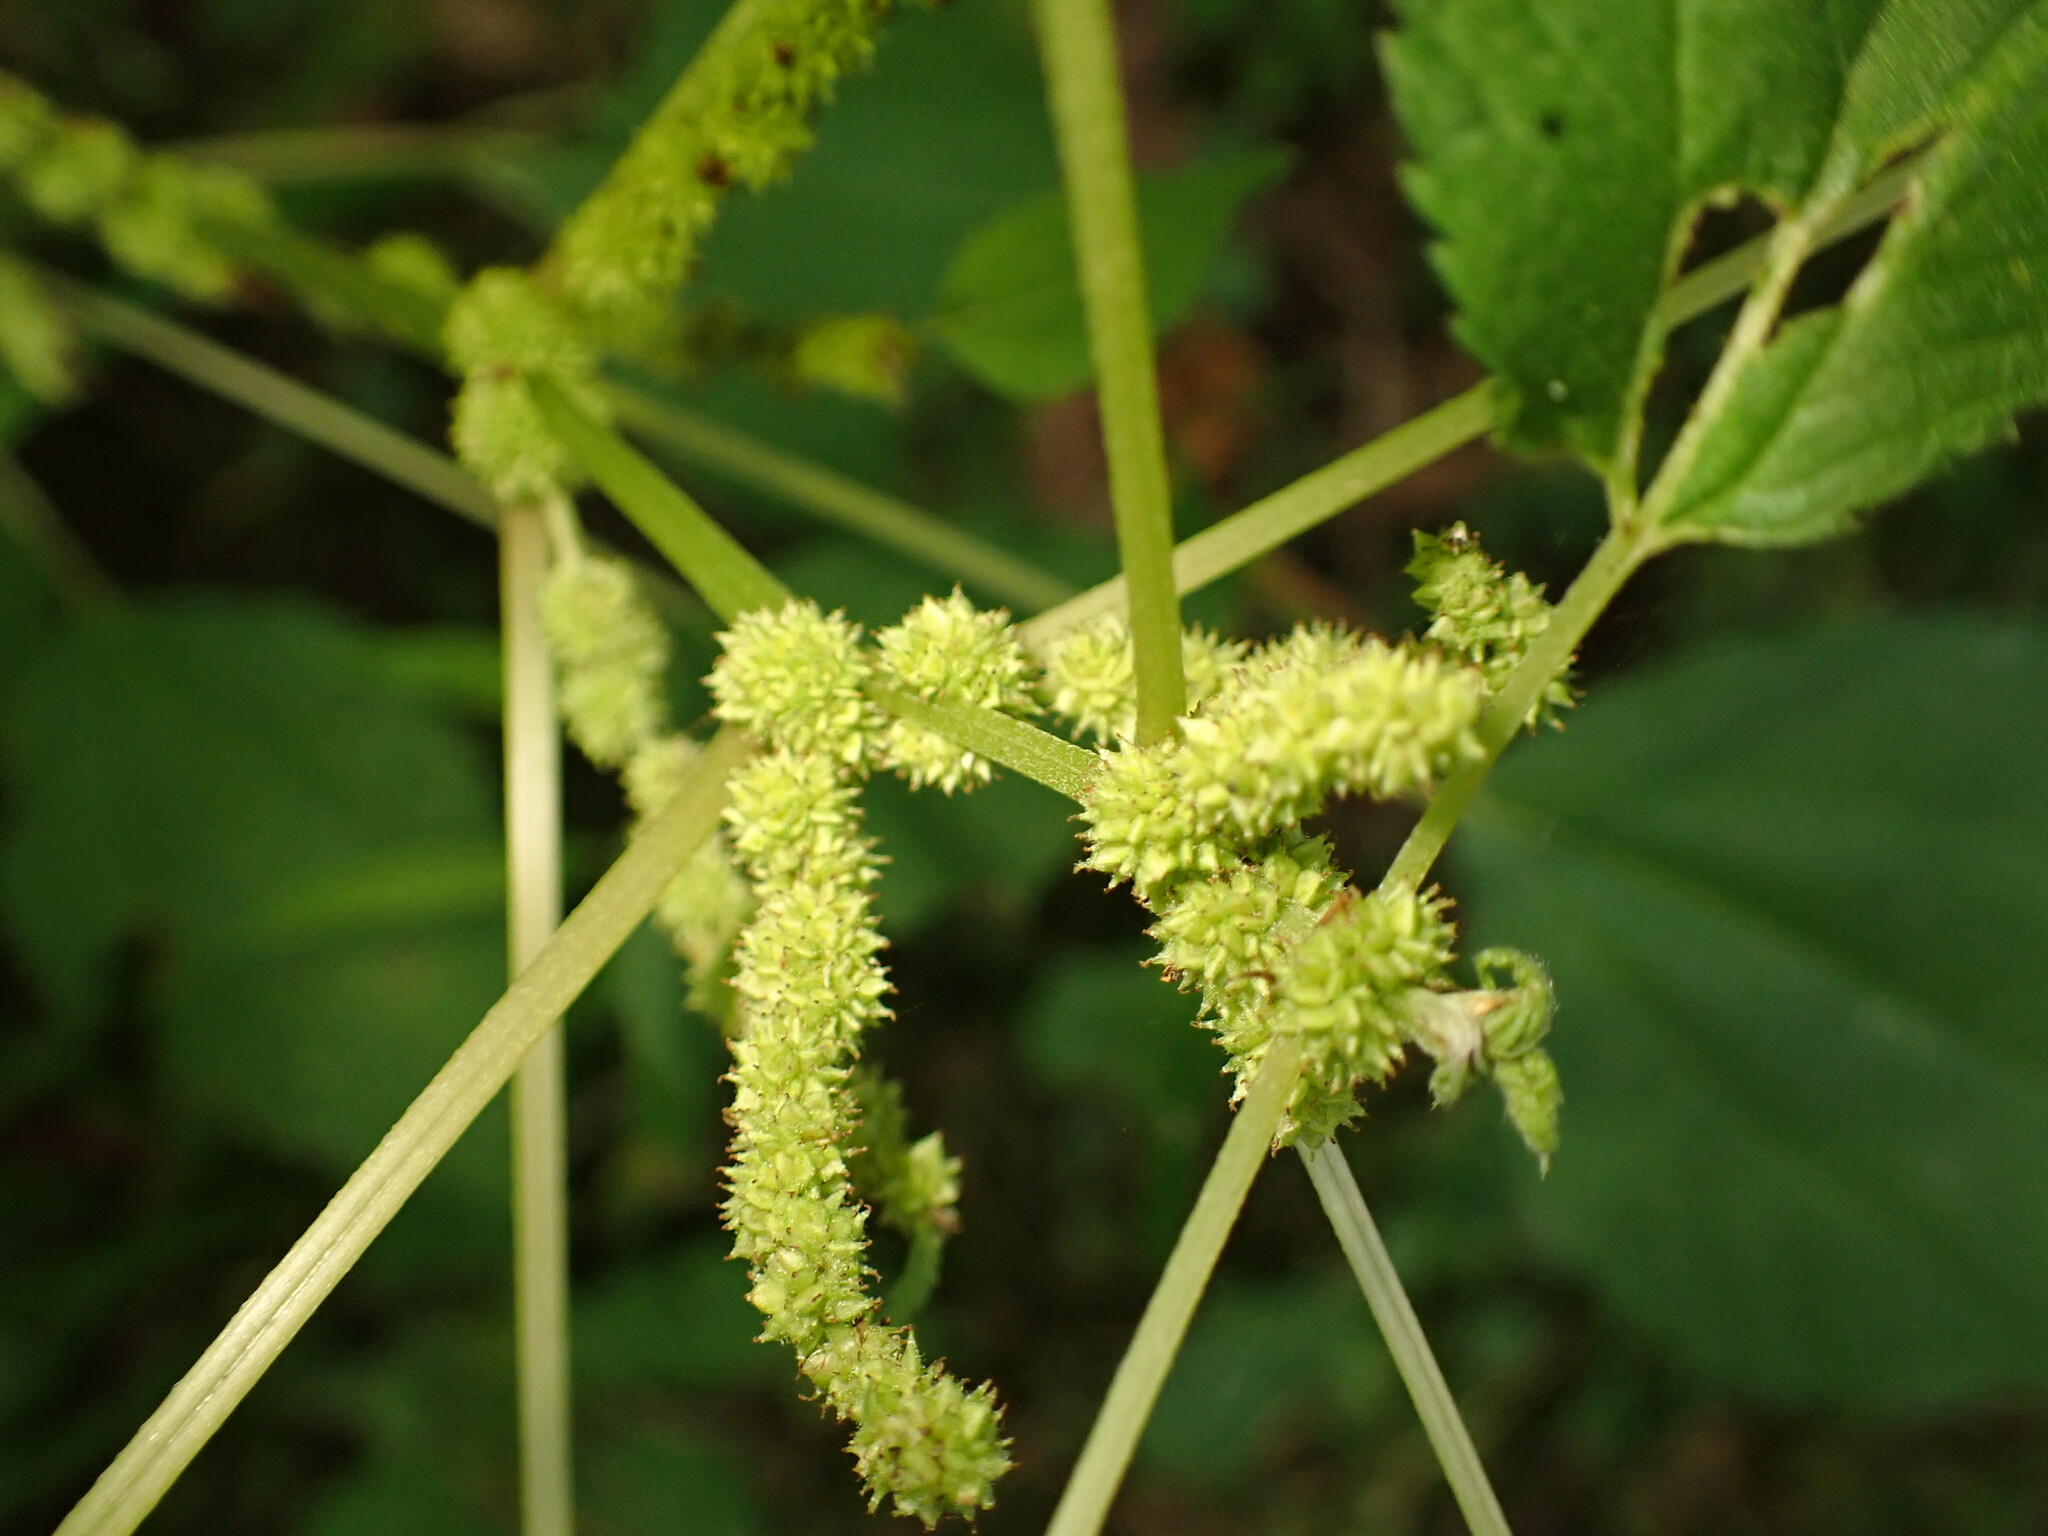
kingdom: Plantae
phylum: Tracheophyta
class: Magnoliopsida
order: Rosales
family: Urticaceae
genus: Boehmeria
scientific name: Boehmeria cylindrica
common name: Bog-hemp
